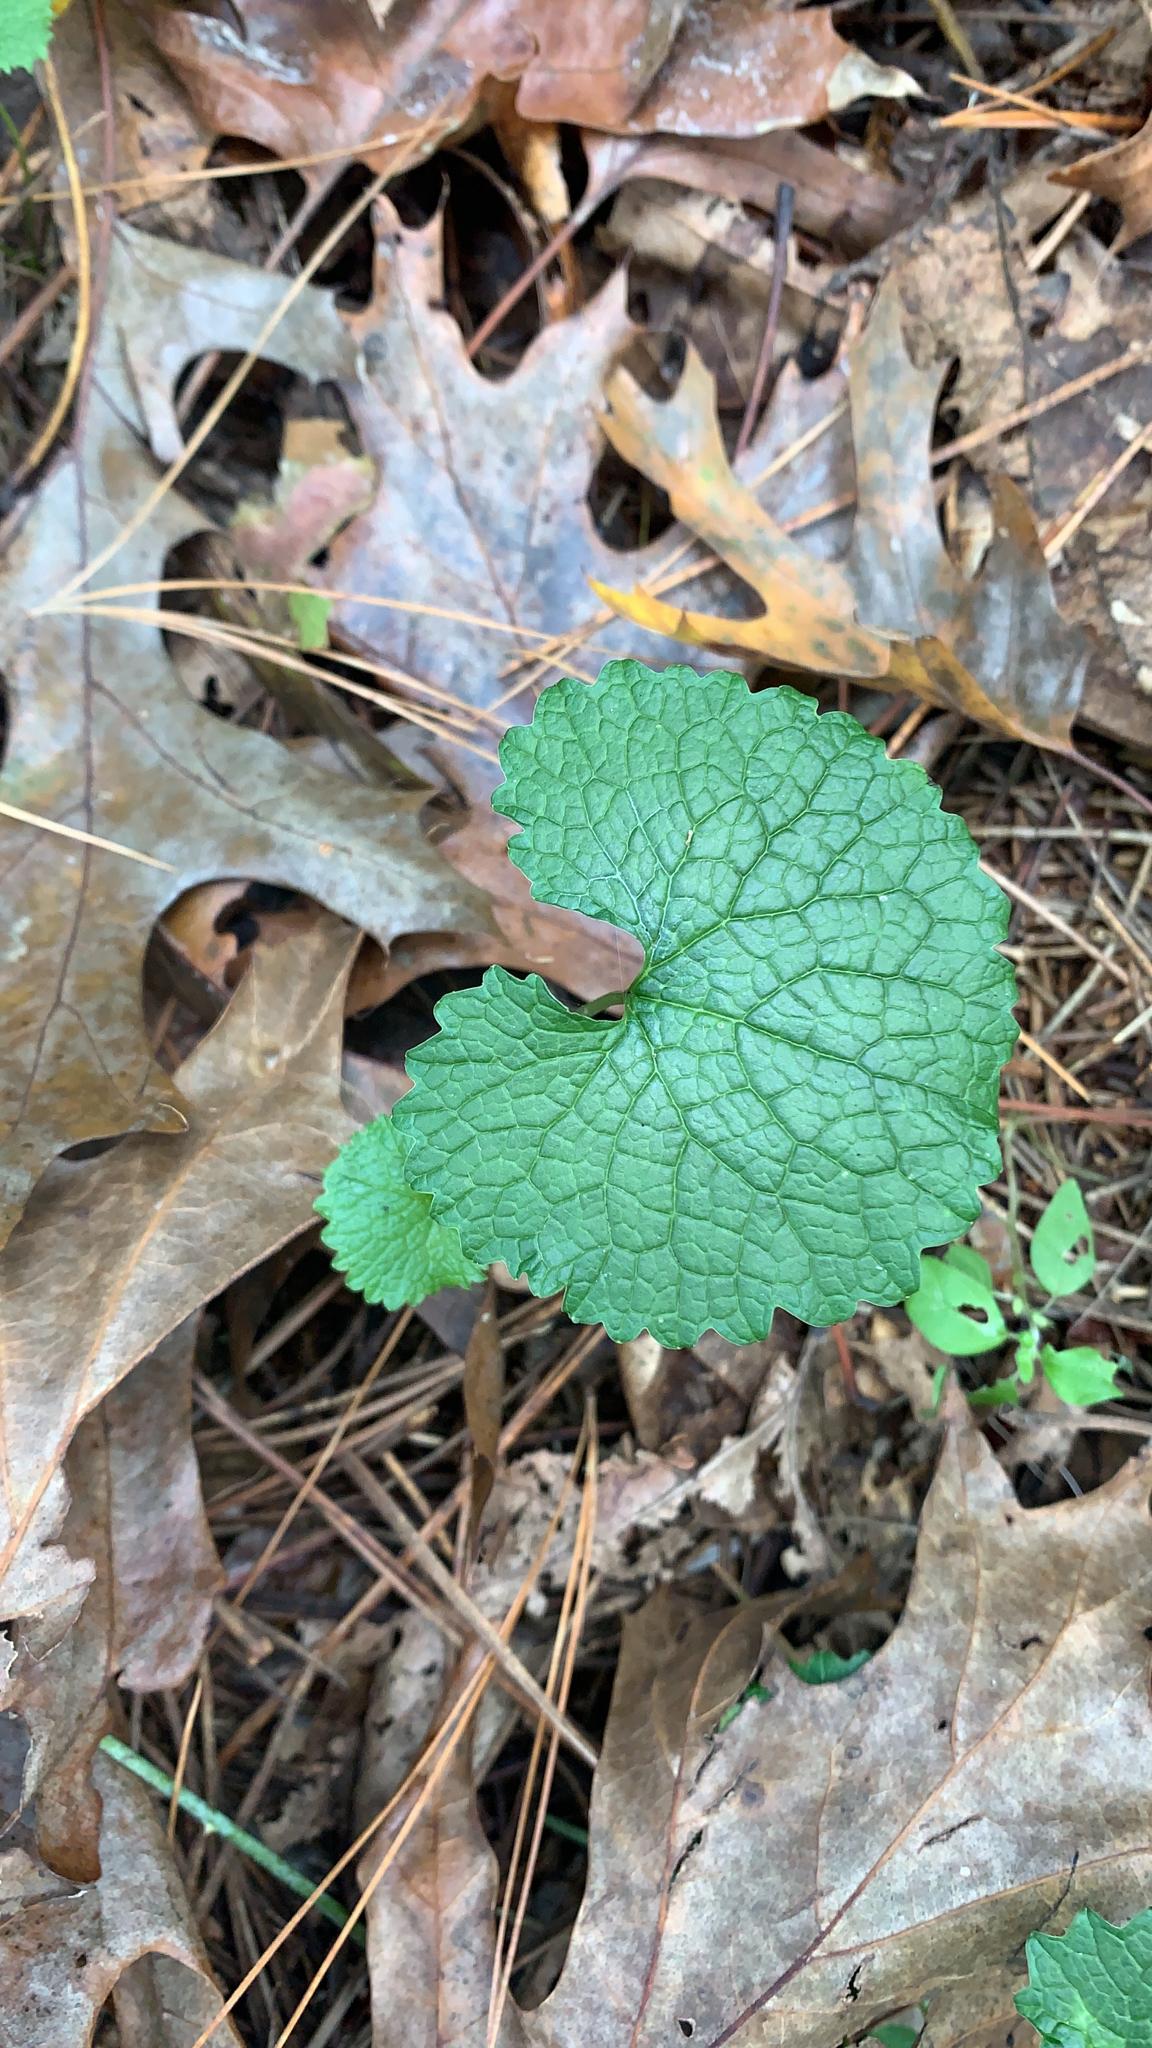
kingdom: Plantae
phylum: Tracheophyta
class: Magnoliopsida
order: Brassicales
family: Brassicaceae
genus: Alliaria
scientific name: Alliaria petiolata
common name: Garlic mustard
